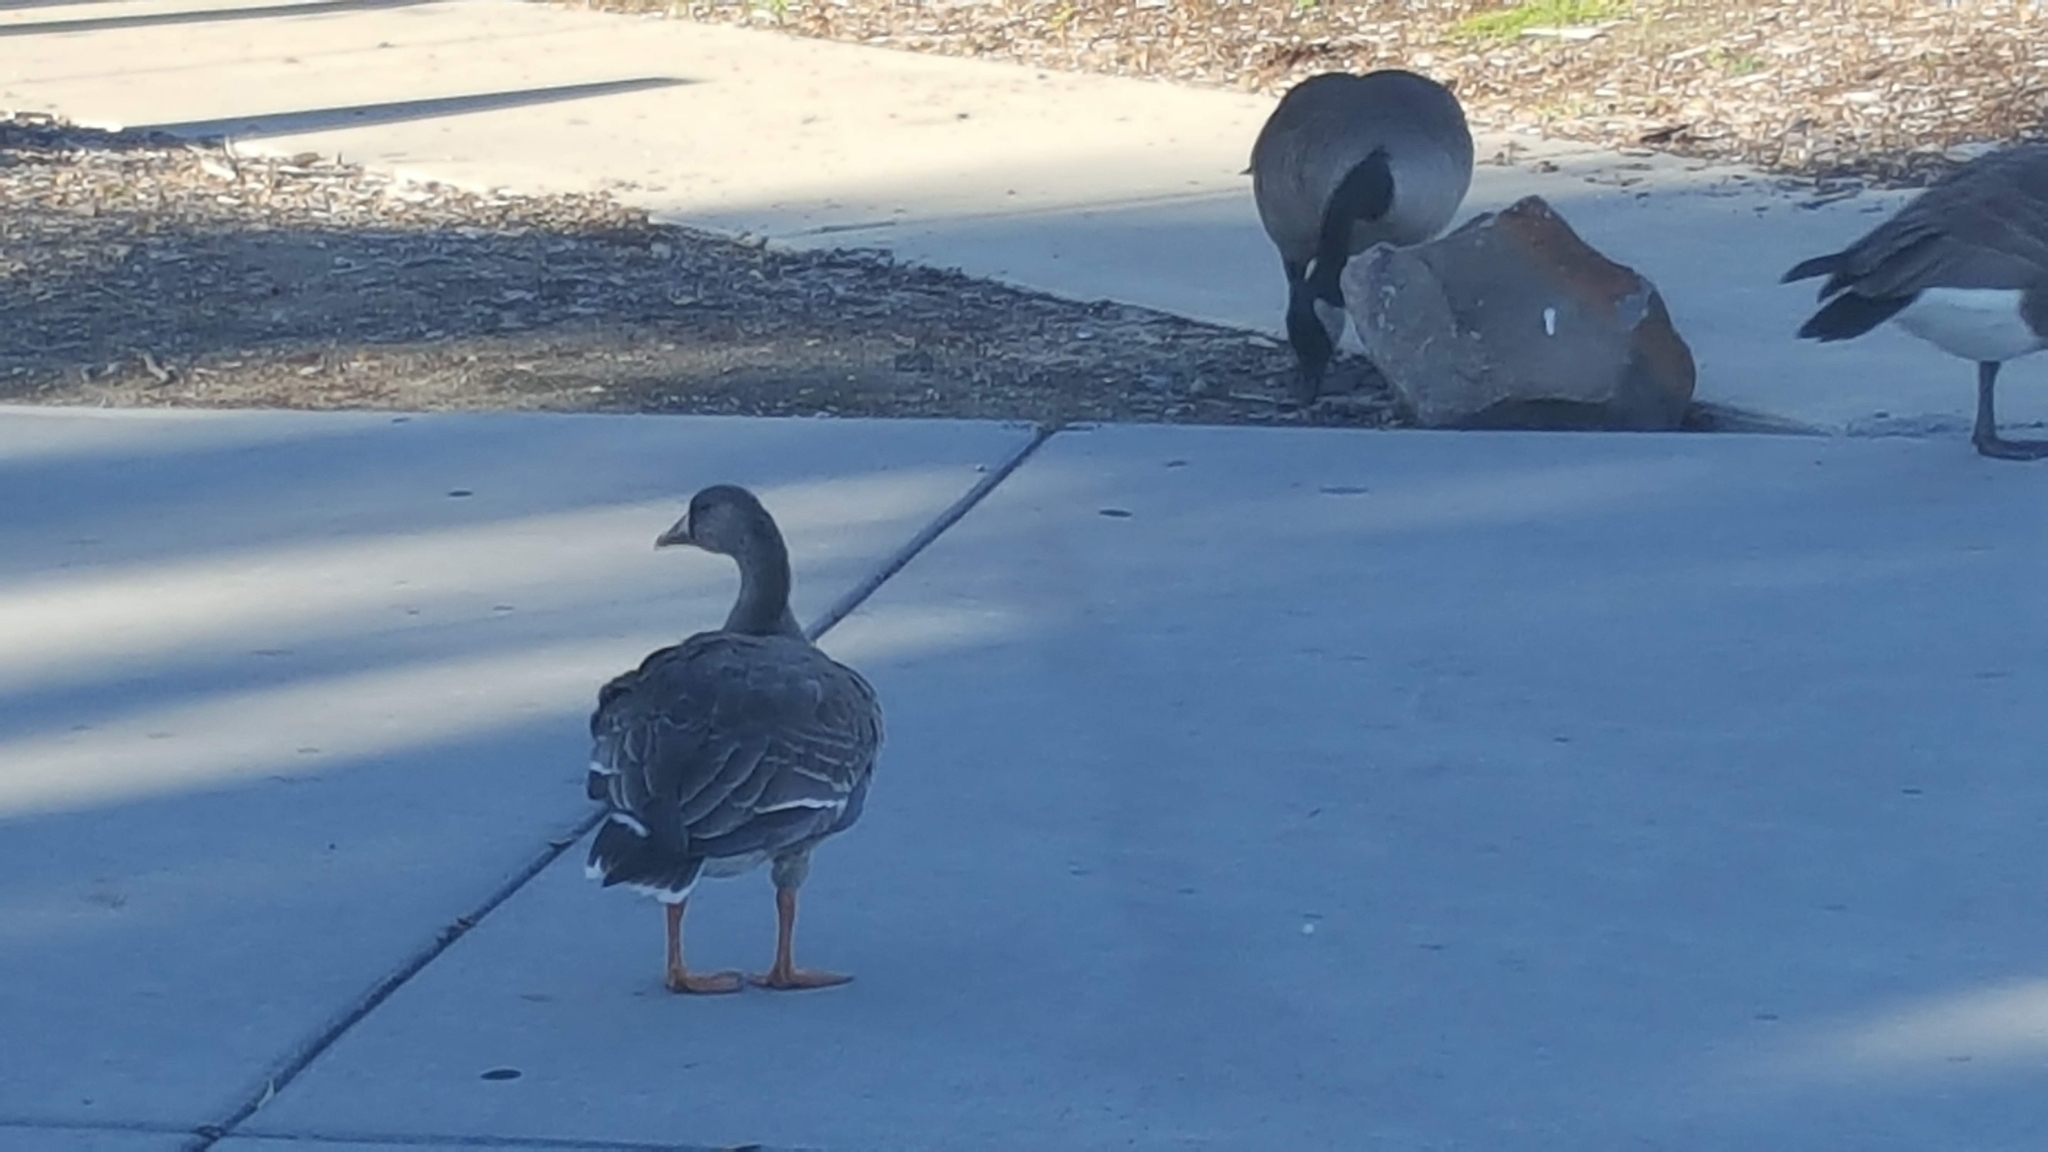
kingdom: Animalia
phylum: Chordata
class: Aves
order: Anseriformes
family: Anatidae
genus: Anser
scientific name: Anser albifrons
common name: Greater white-fronted goose
